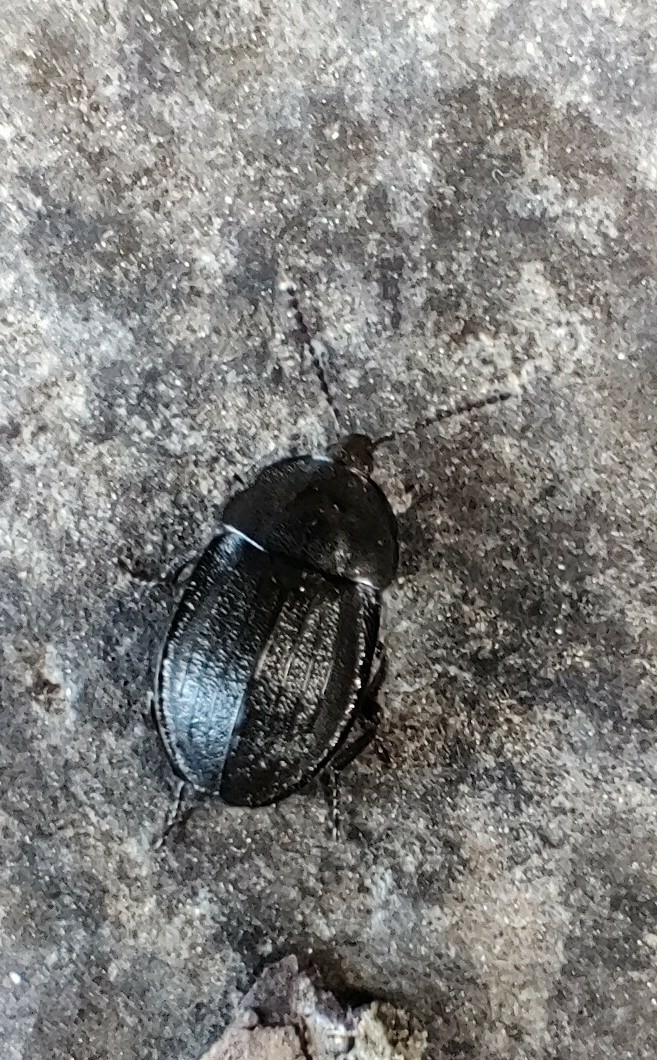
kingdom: Animalia
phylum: Arthropoda
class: Insecta
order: Coleoptera
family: Staphylinidae
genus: Silpha
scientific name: Silpha atrata
